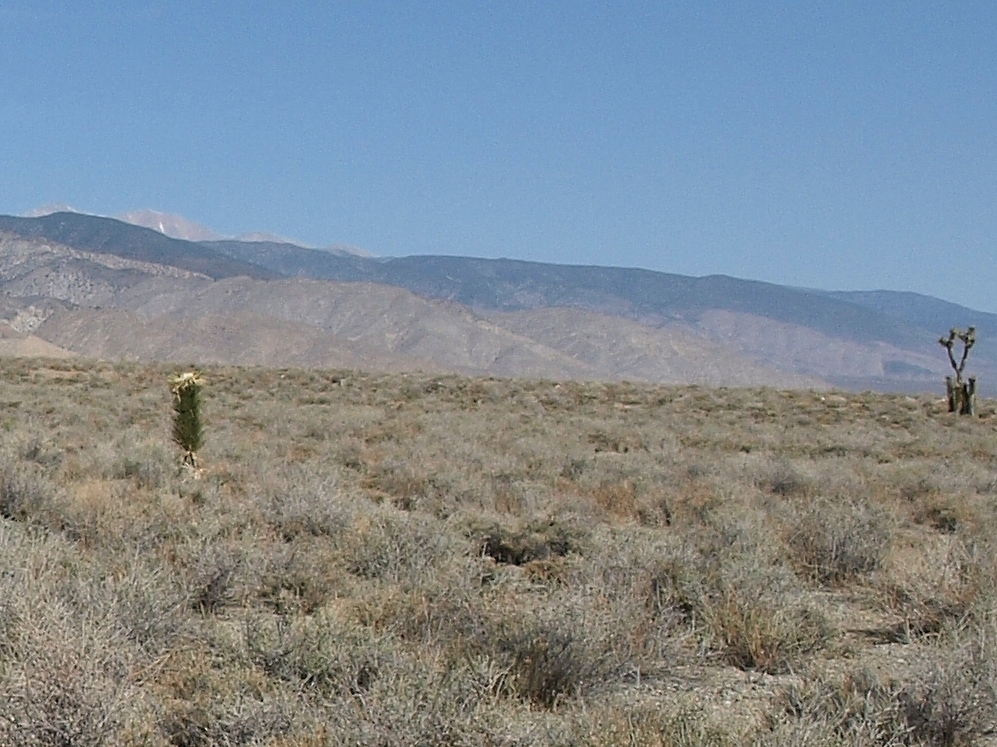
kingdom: Plantae
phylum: Tracheophyta
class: Liliopsida
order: Asparagales
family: Asparagaceae
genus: Yucca
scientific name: Yucca brevifolia
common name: Joshua tree
